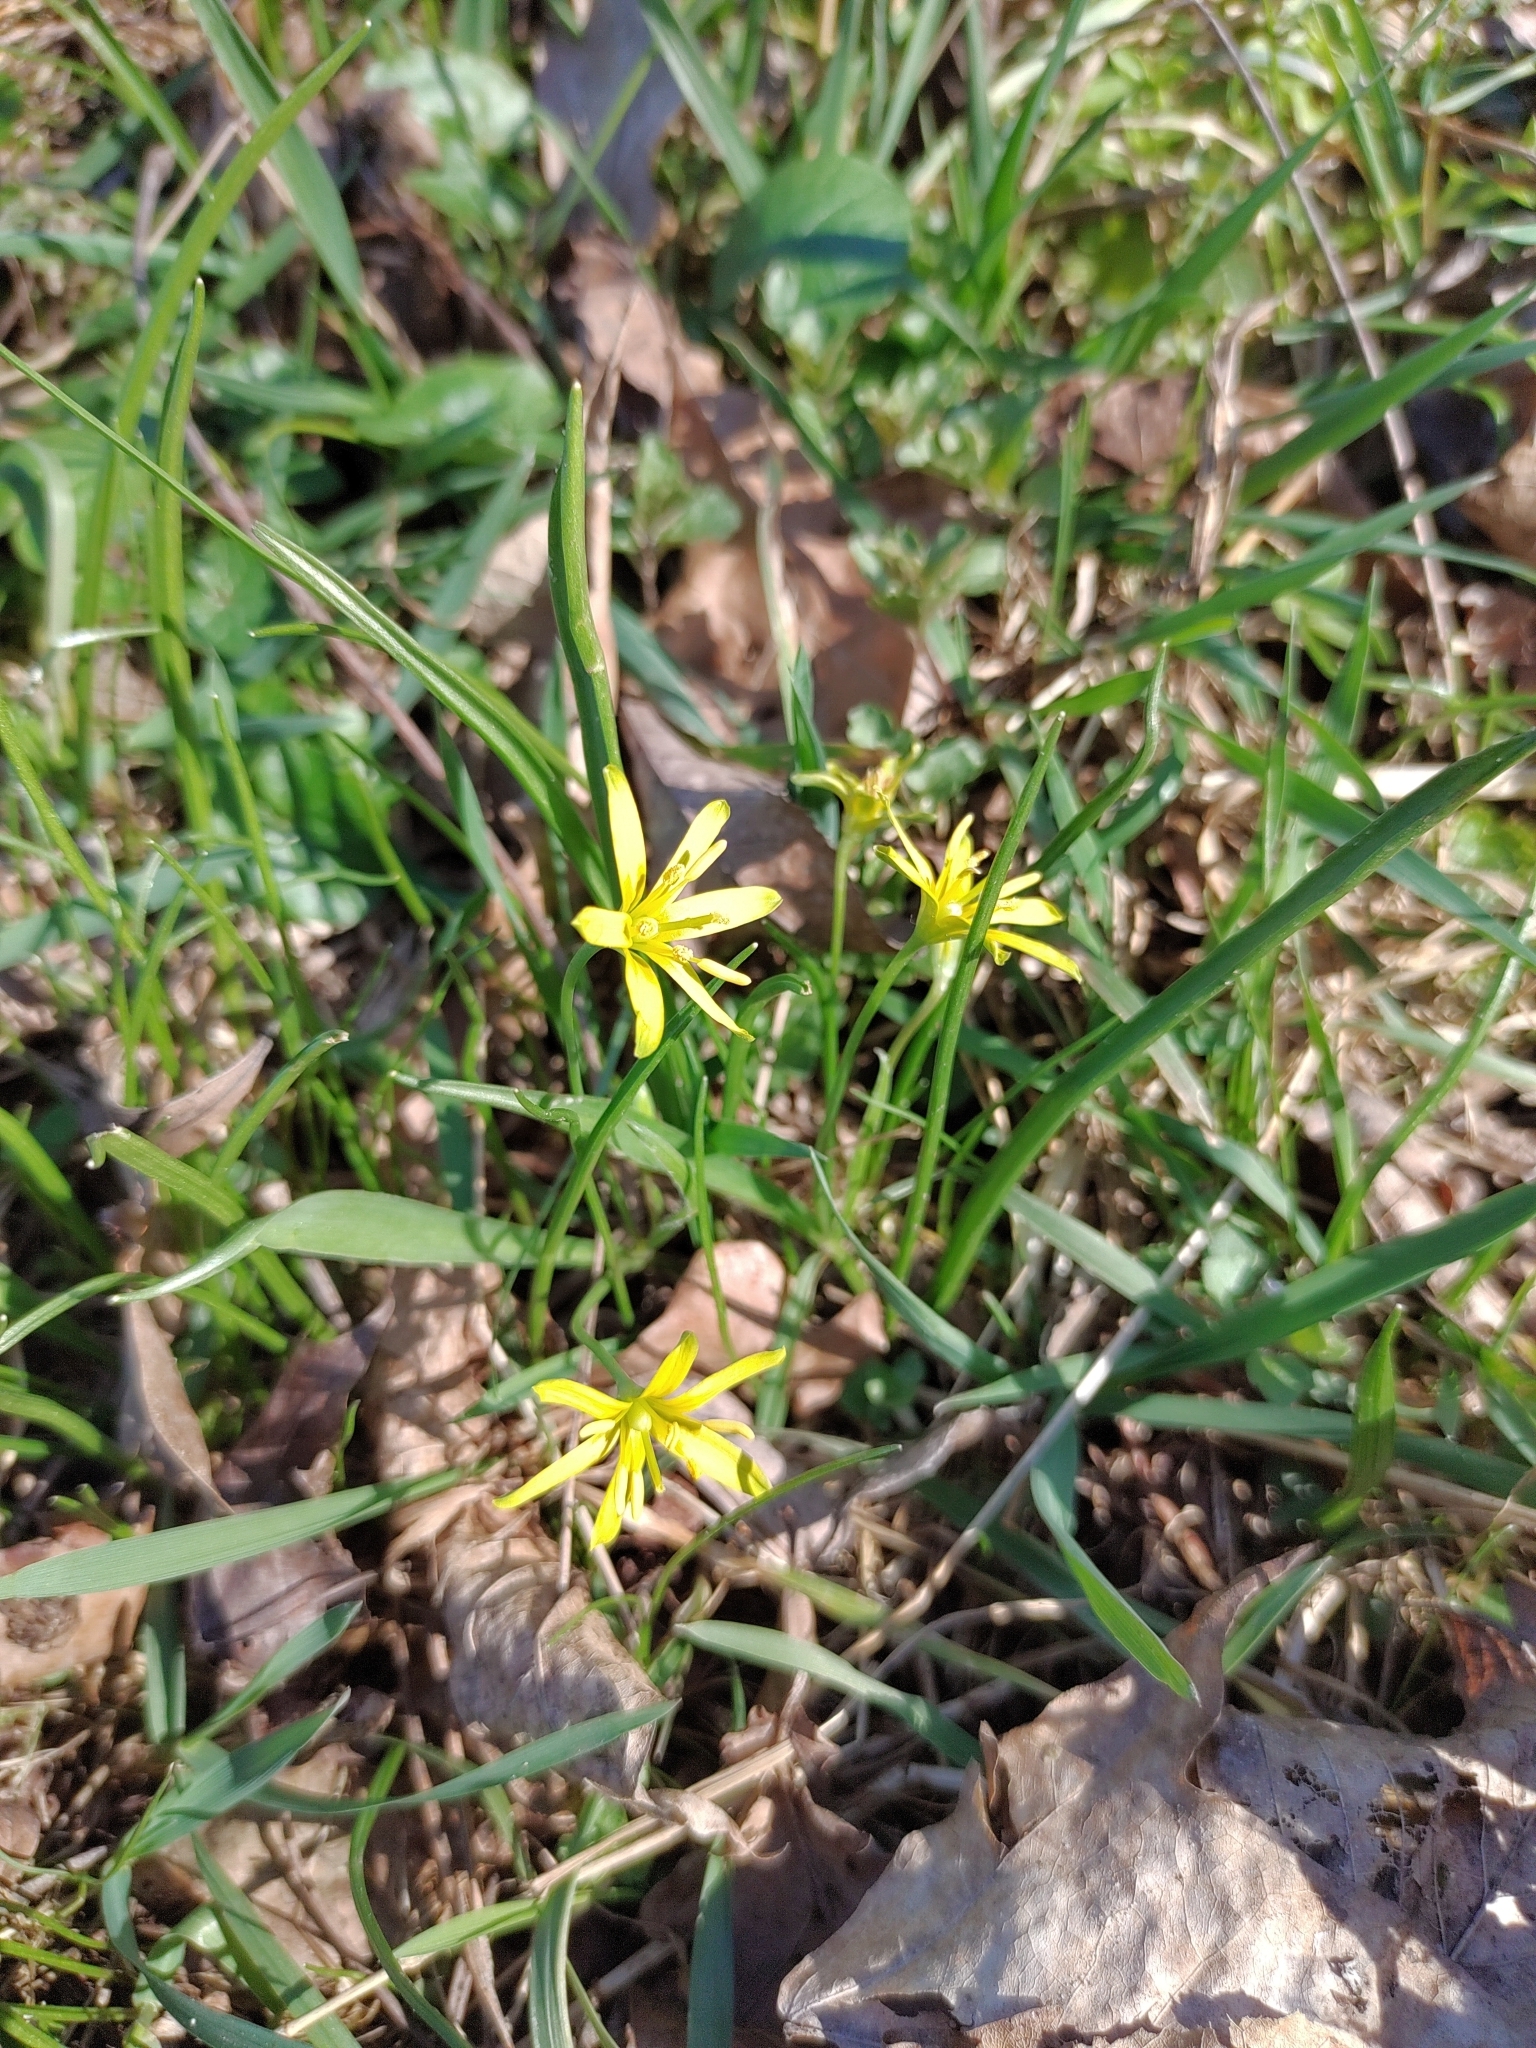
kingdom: Plantae
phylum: Tracheophyta
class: Liliopsida
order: Liliales
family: Liliaceae
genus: Gagea
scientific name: Gagea lutea
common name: Yellow star-of-bethlehem
